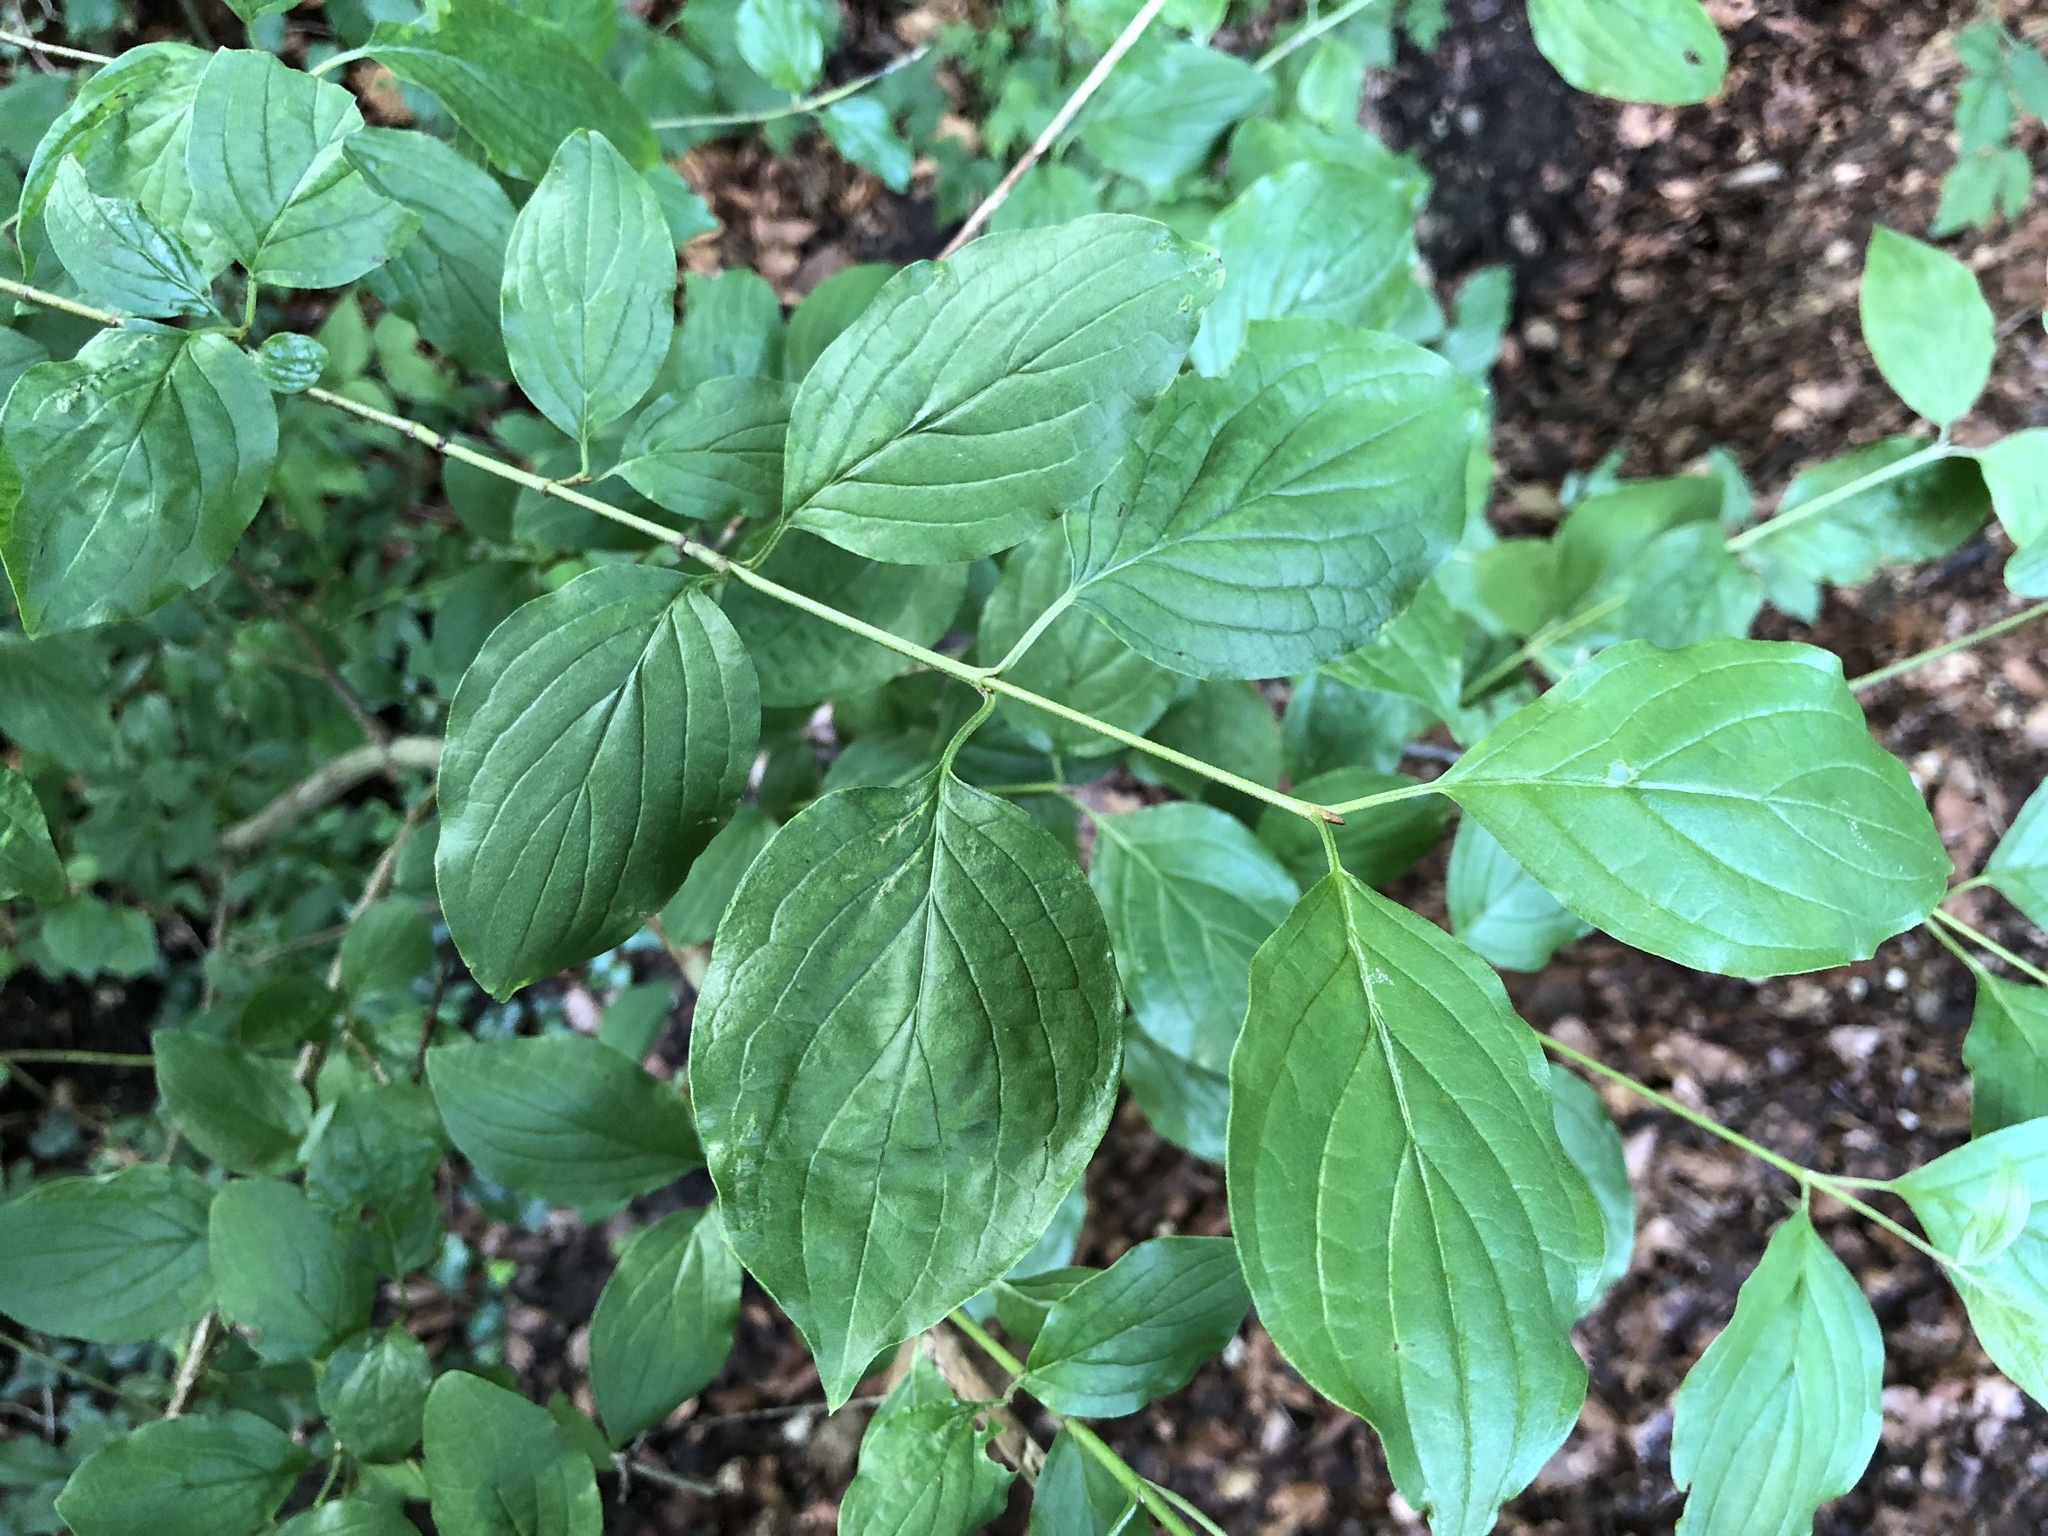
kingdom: Plantae
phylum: Tracheophyta
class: Magnoliopsida
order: Cornales
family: Cornaceae
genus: Cornus
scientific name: Cornus sanguinea
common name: Dogwood
